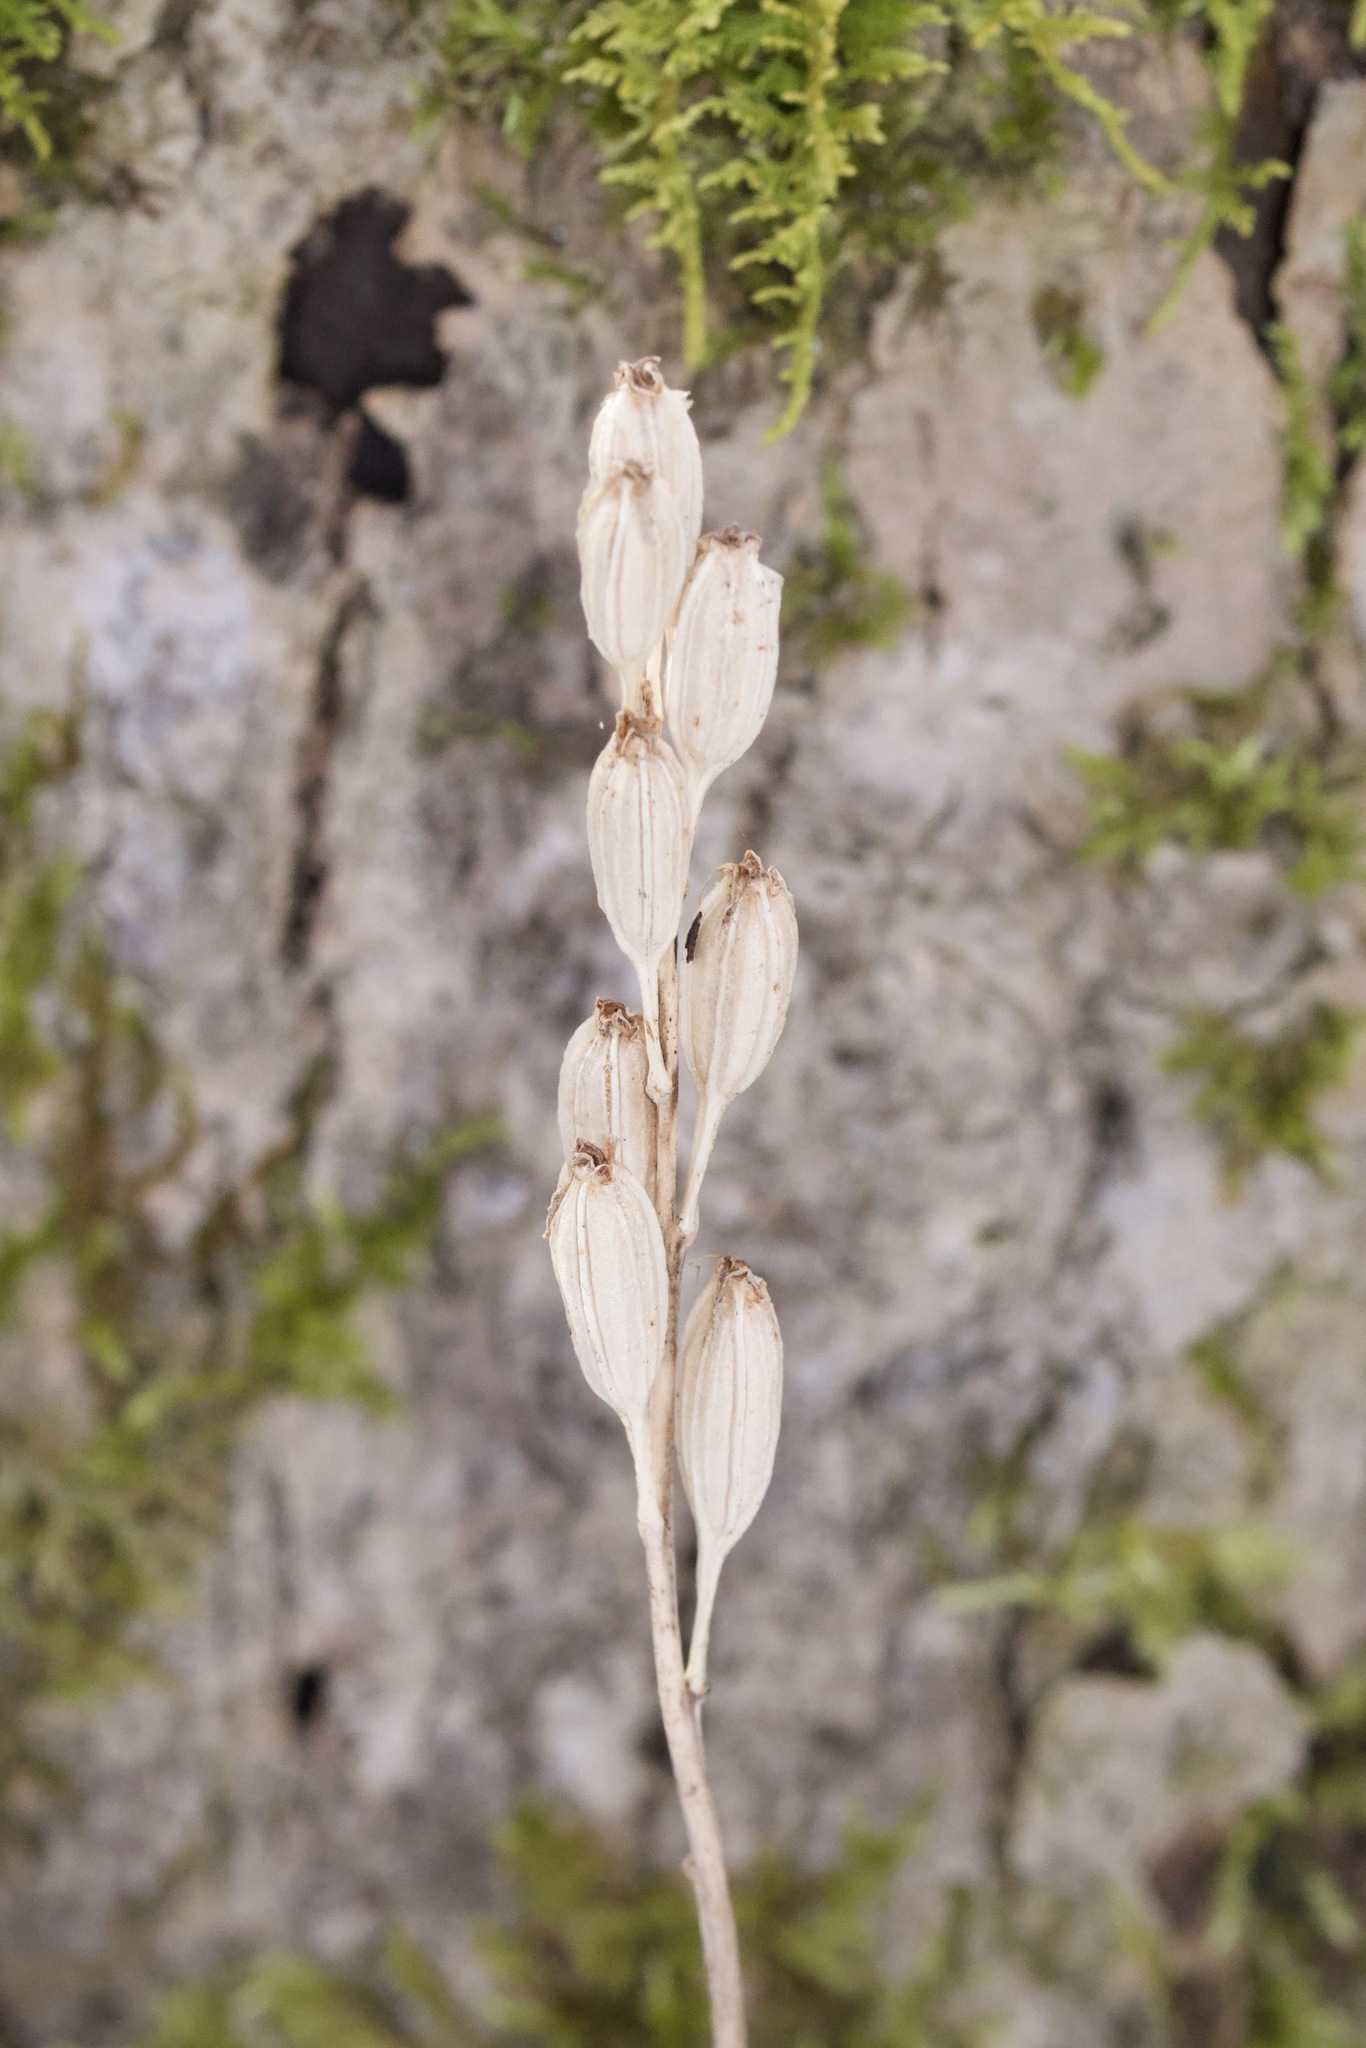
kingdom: Animalia
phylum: Arthropoda
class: Insecta
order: Coleoptera
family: Curculionidae
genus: Liparis
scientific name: Liparis loeselii
